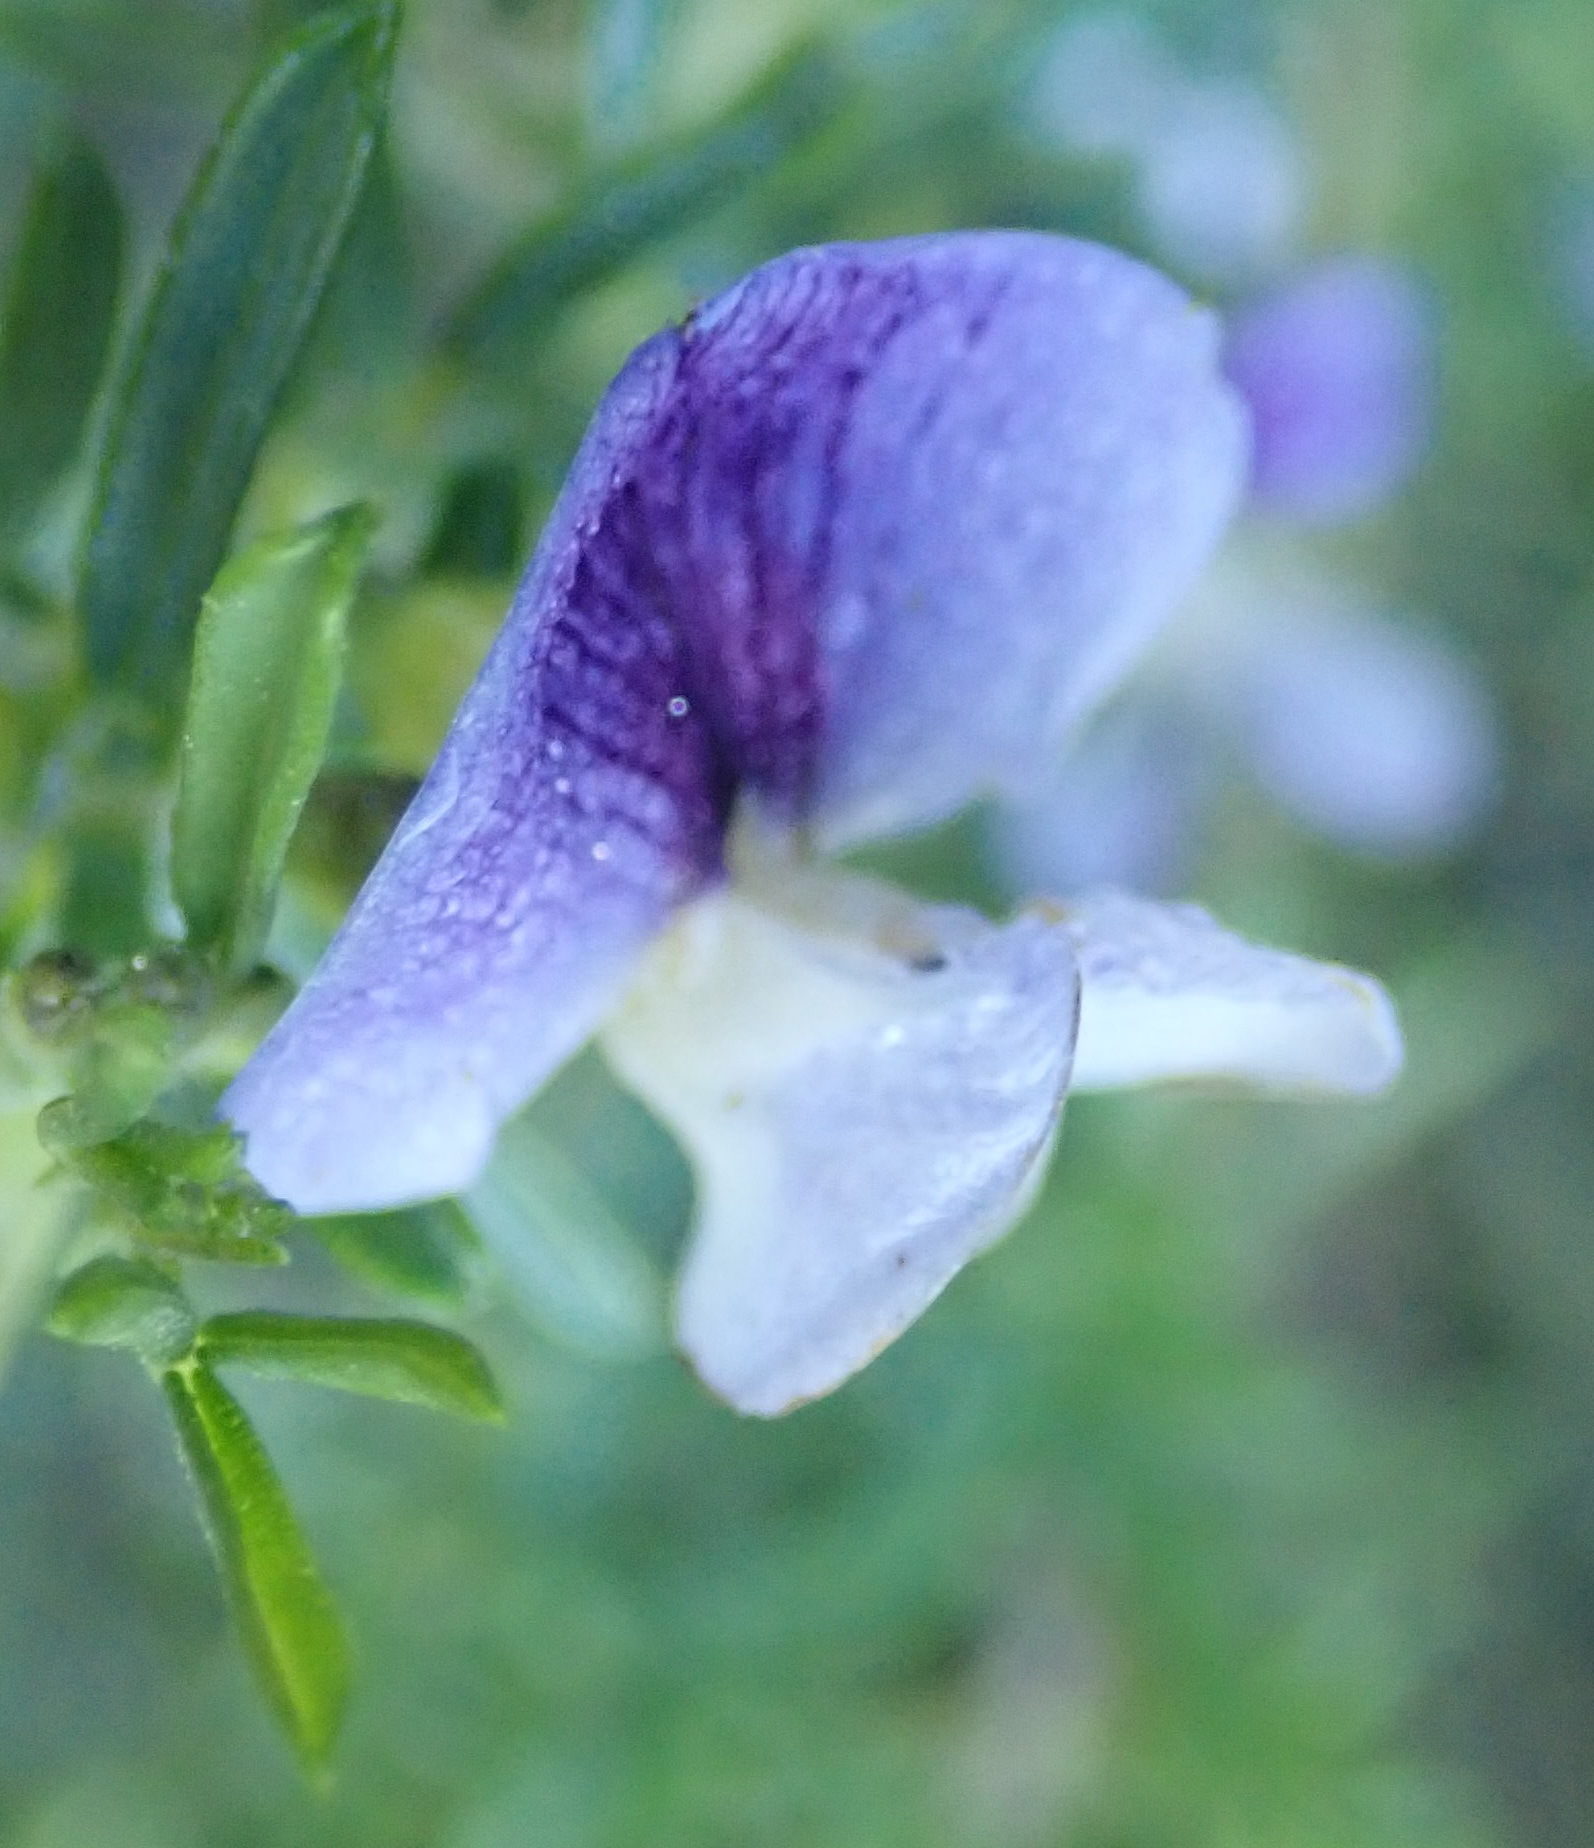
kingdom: Plantae
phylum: Tracheophyta
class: Magnoliopsida
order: Fabales
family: Fabaceae
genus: Psoralea
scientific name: Psoralea axillaris
